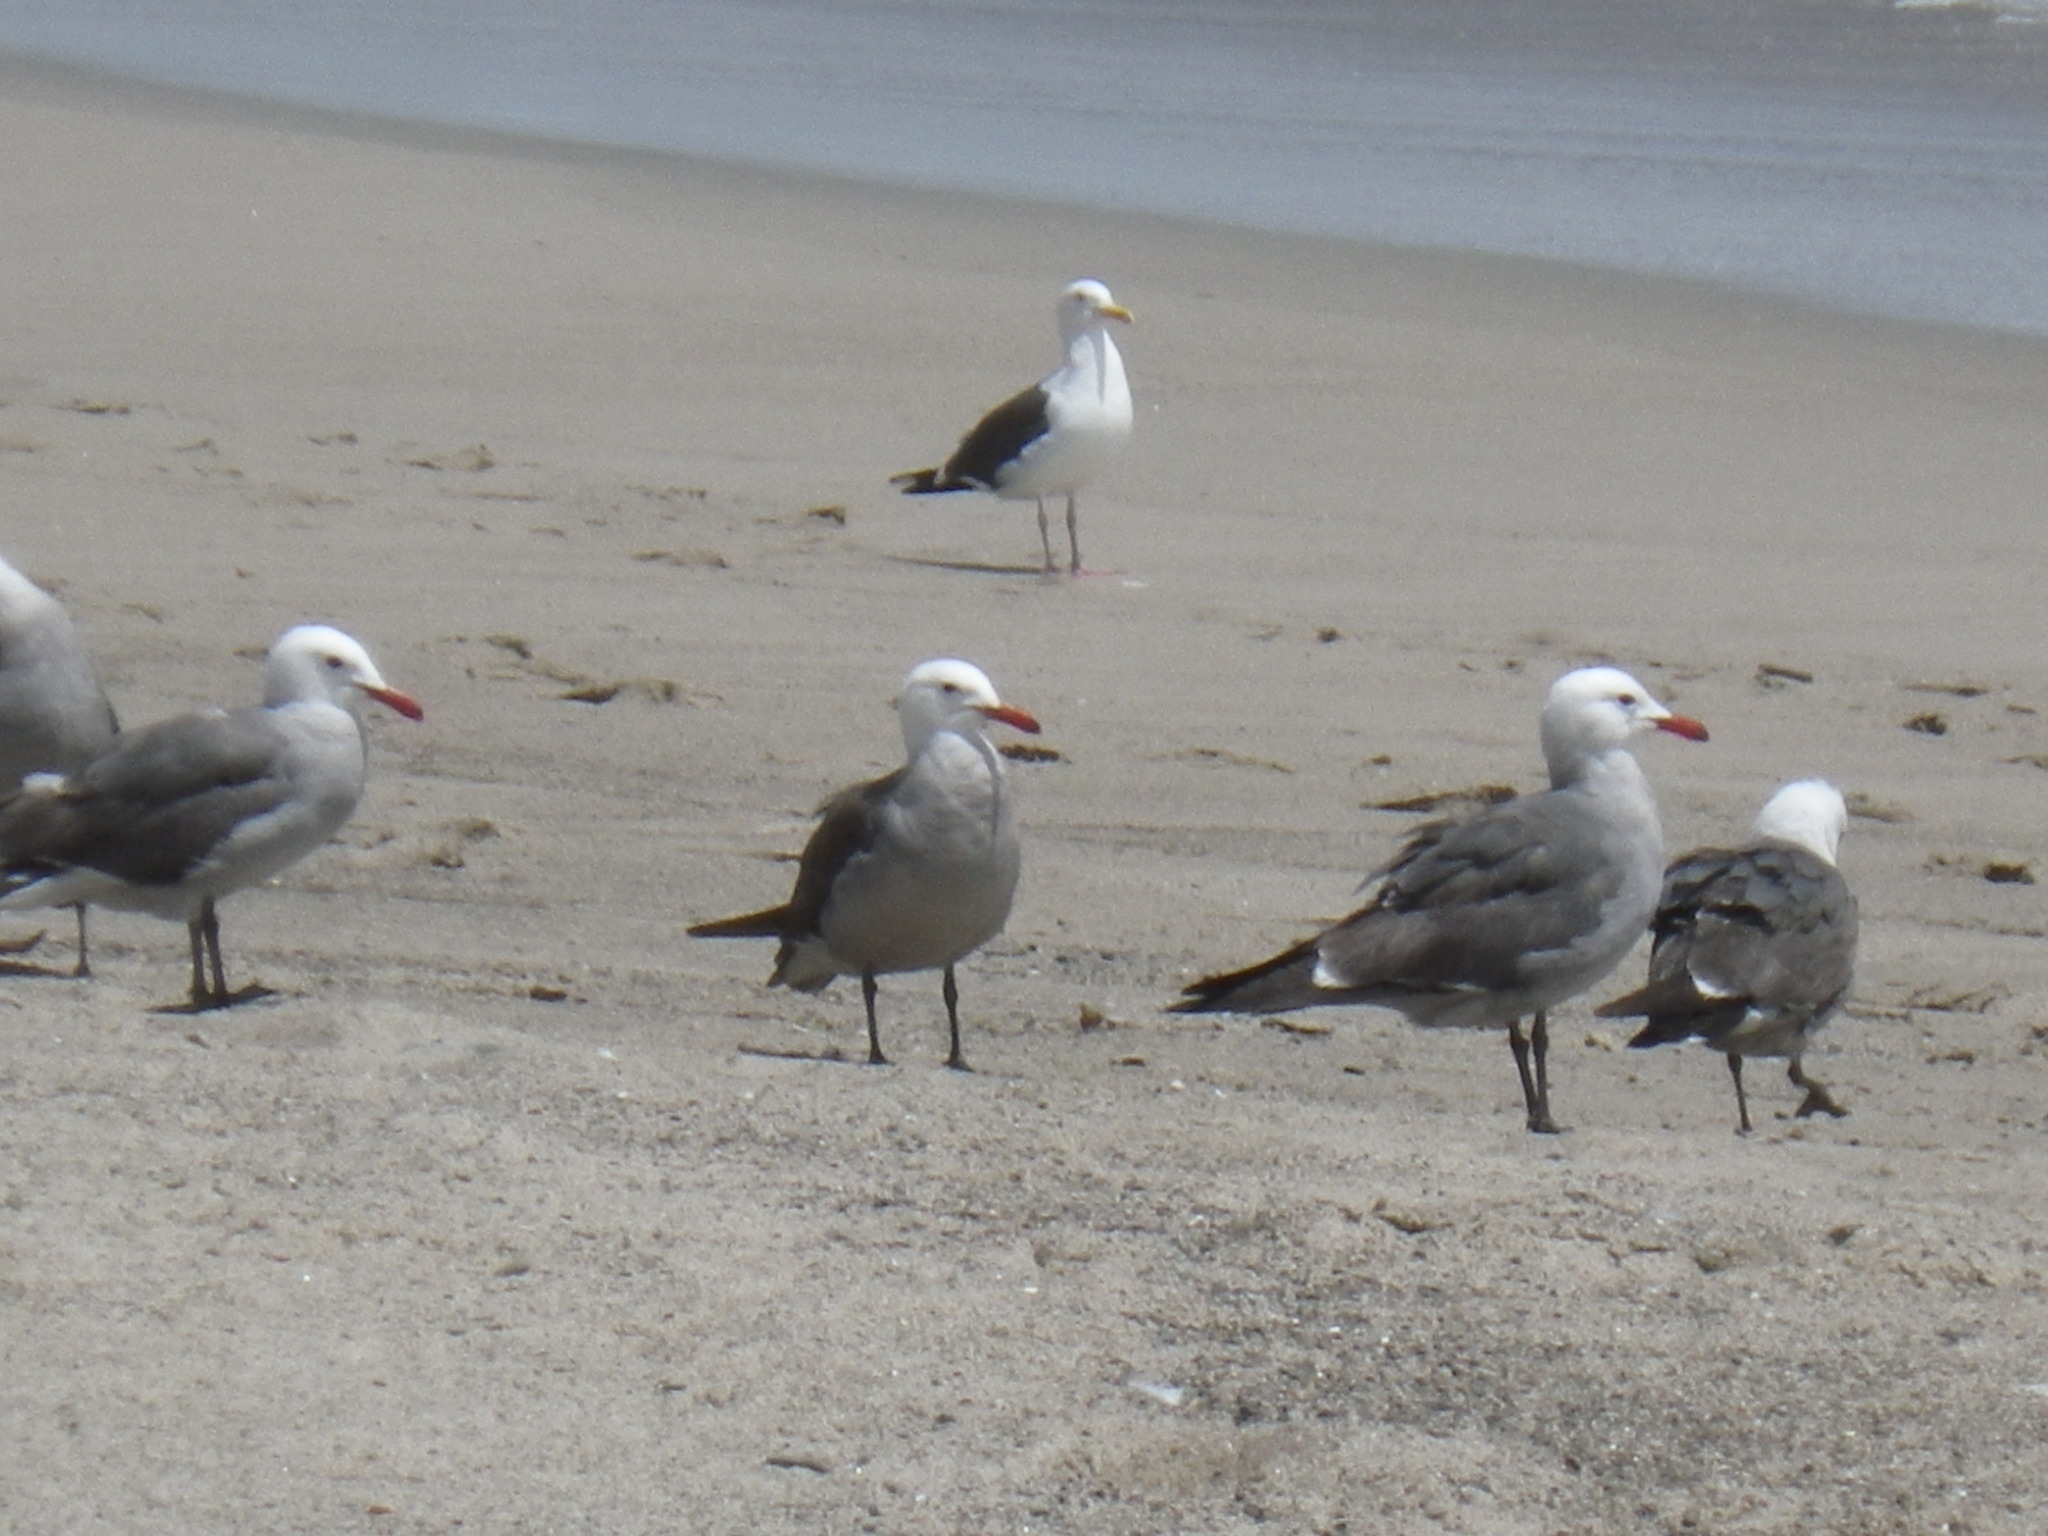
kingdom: Animalia
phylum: Chordata
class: Aves
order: Charadriiformes
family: Laridae
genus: Larus
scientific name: Larus heermanni
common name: Heermann's gull
